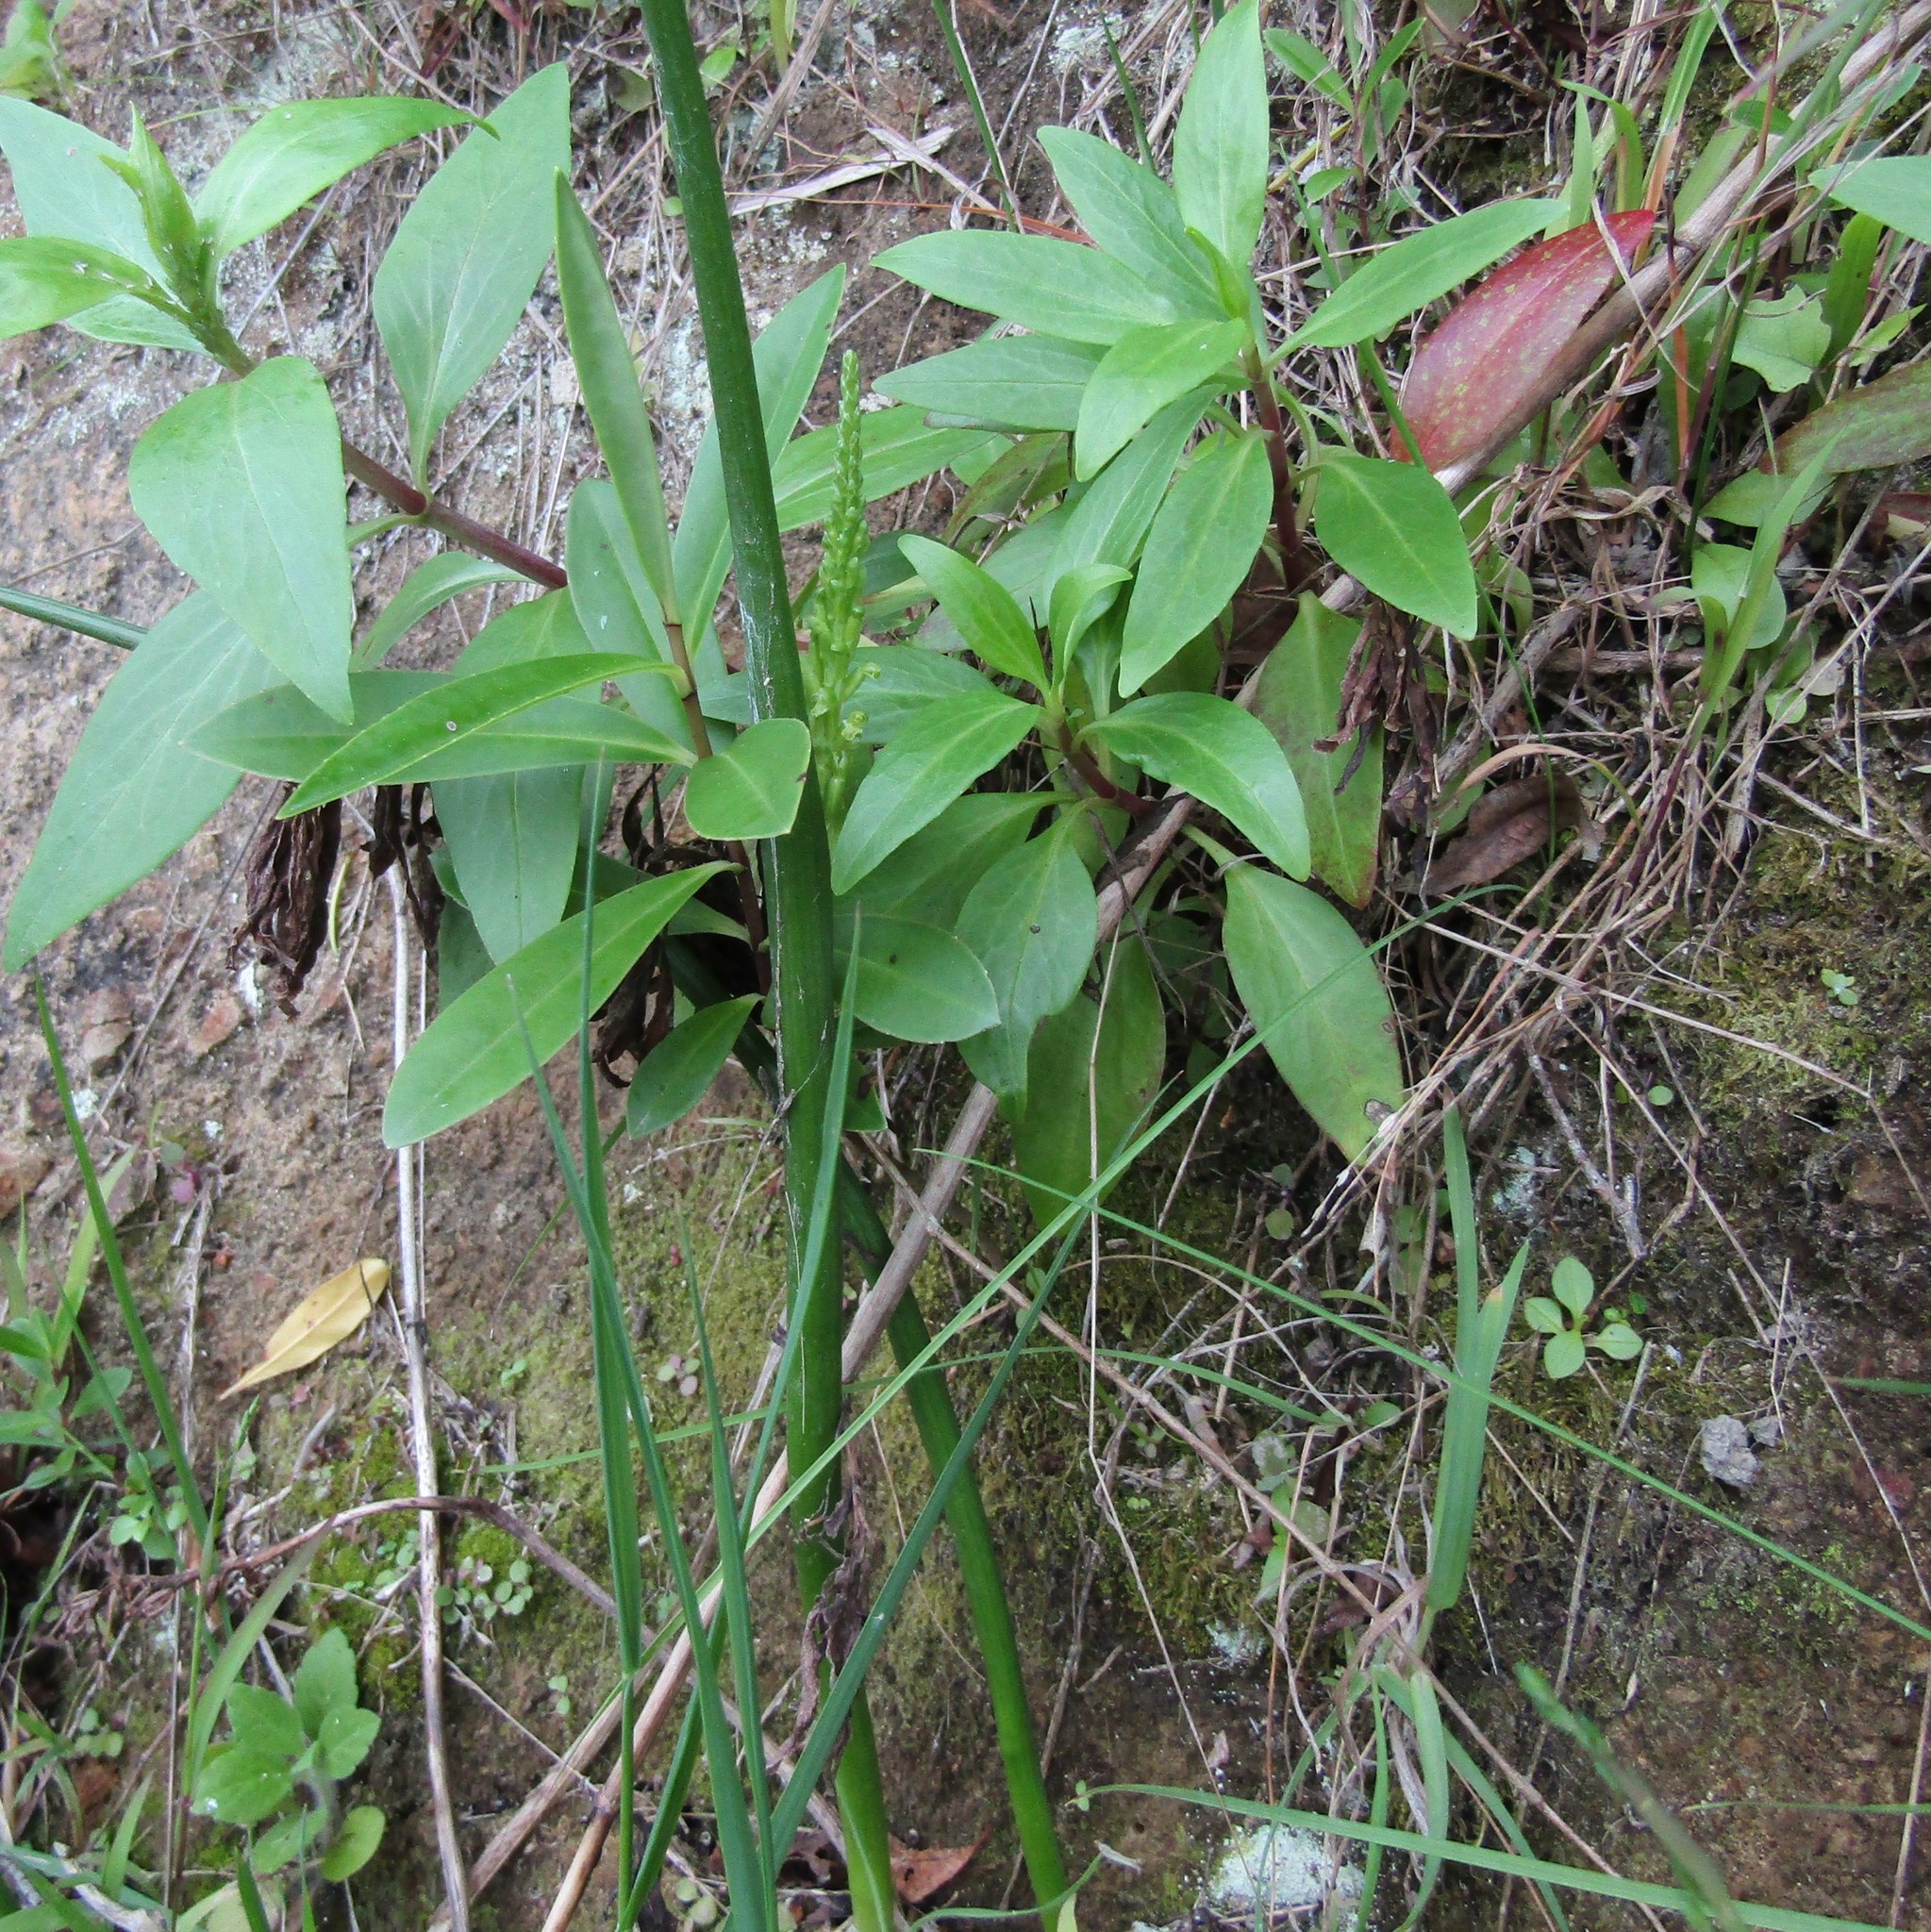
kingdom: Plantae
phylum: Tracheophyta
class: Liliopsida
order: Asparagales
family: Orchidaceae
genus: Microtis
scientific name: Microtis unifolia
